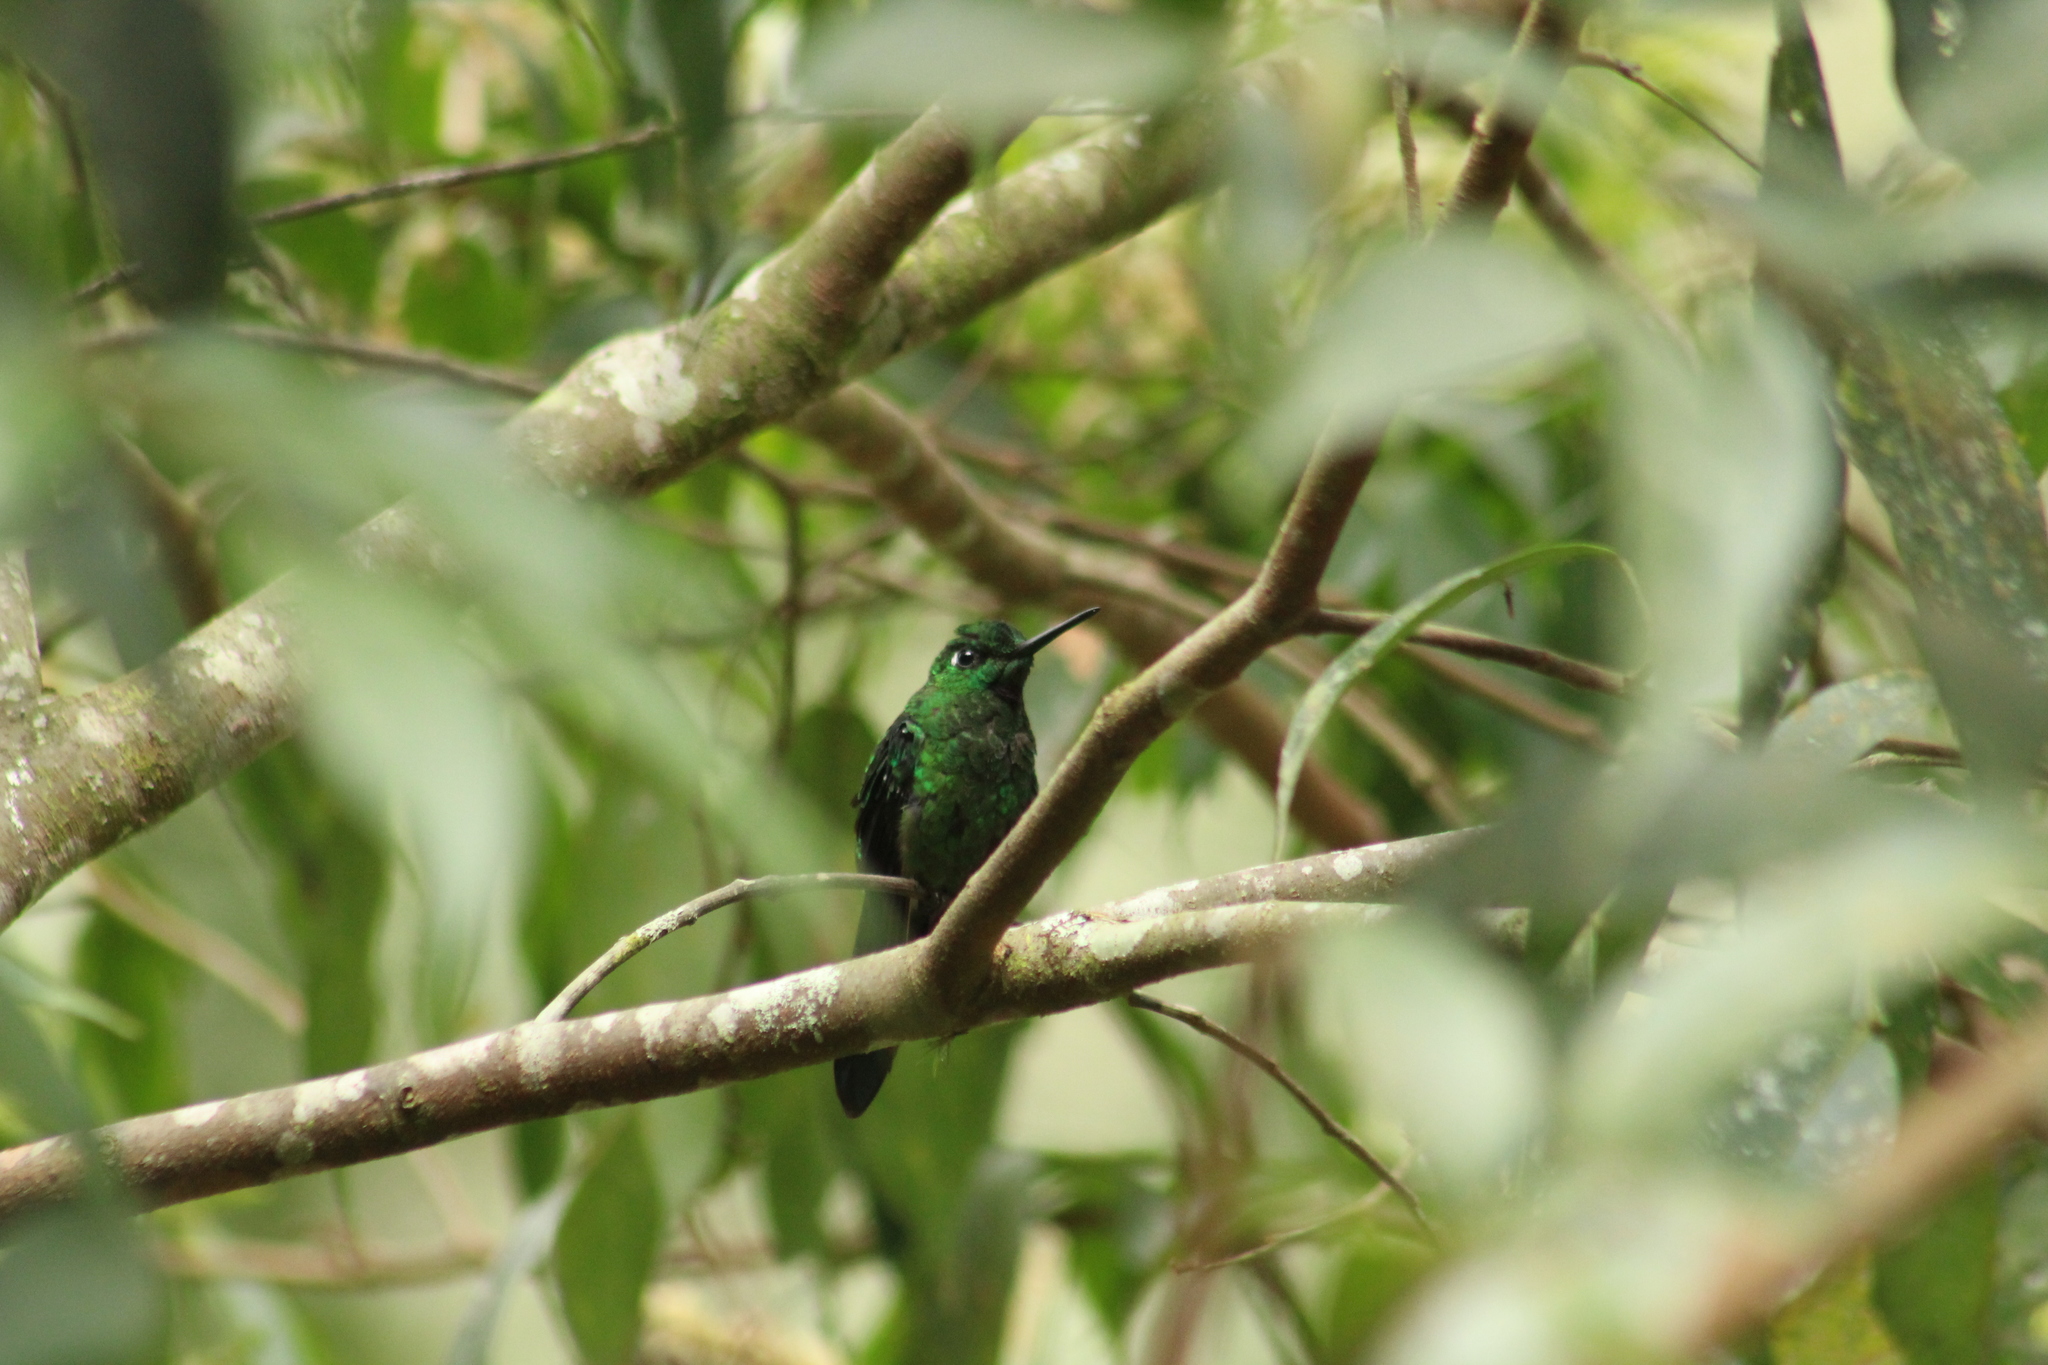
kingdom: Animalia
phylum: Chordata
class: Aves
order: Apodiformes
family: Trochilidae
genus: Heliodoxa
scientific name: Heliodoxa jacula
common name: Green-crowned brilliant
